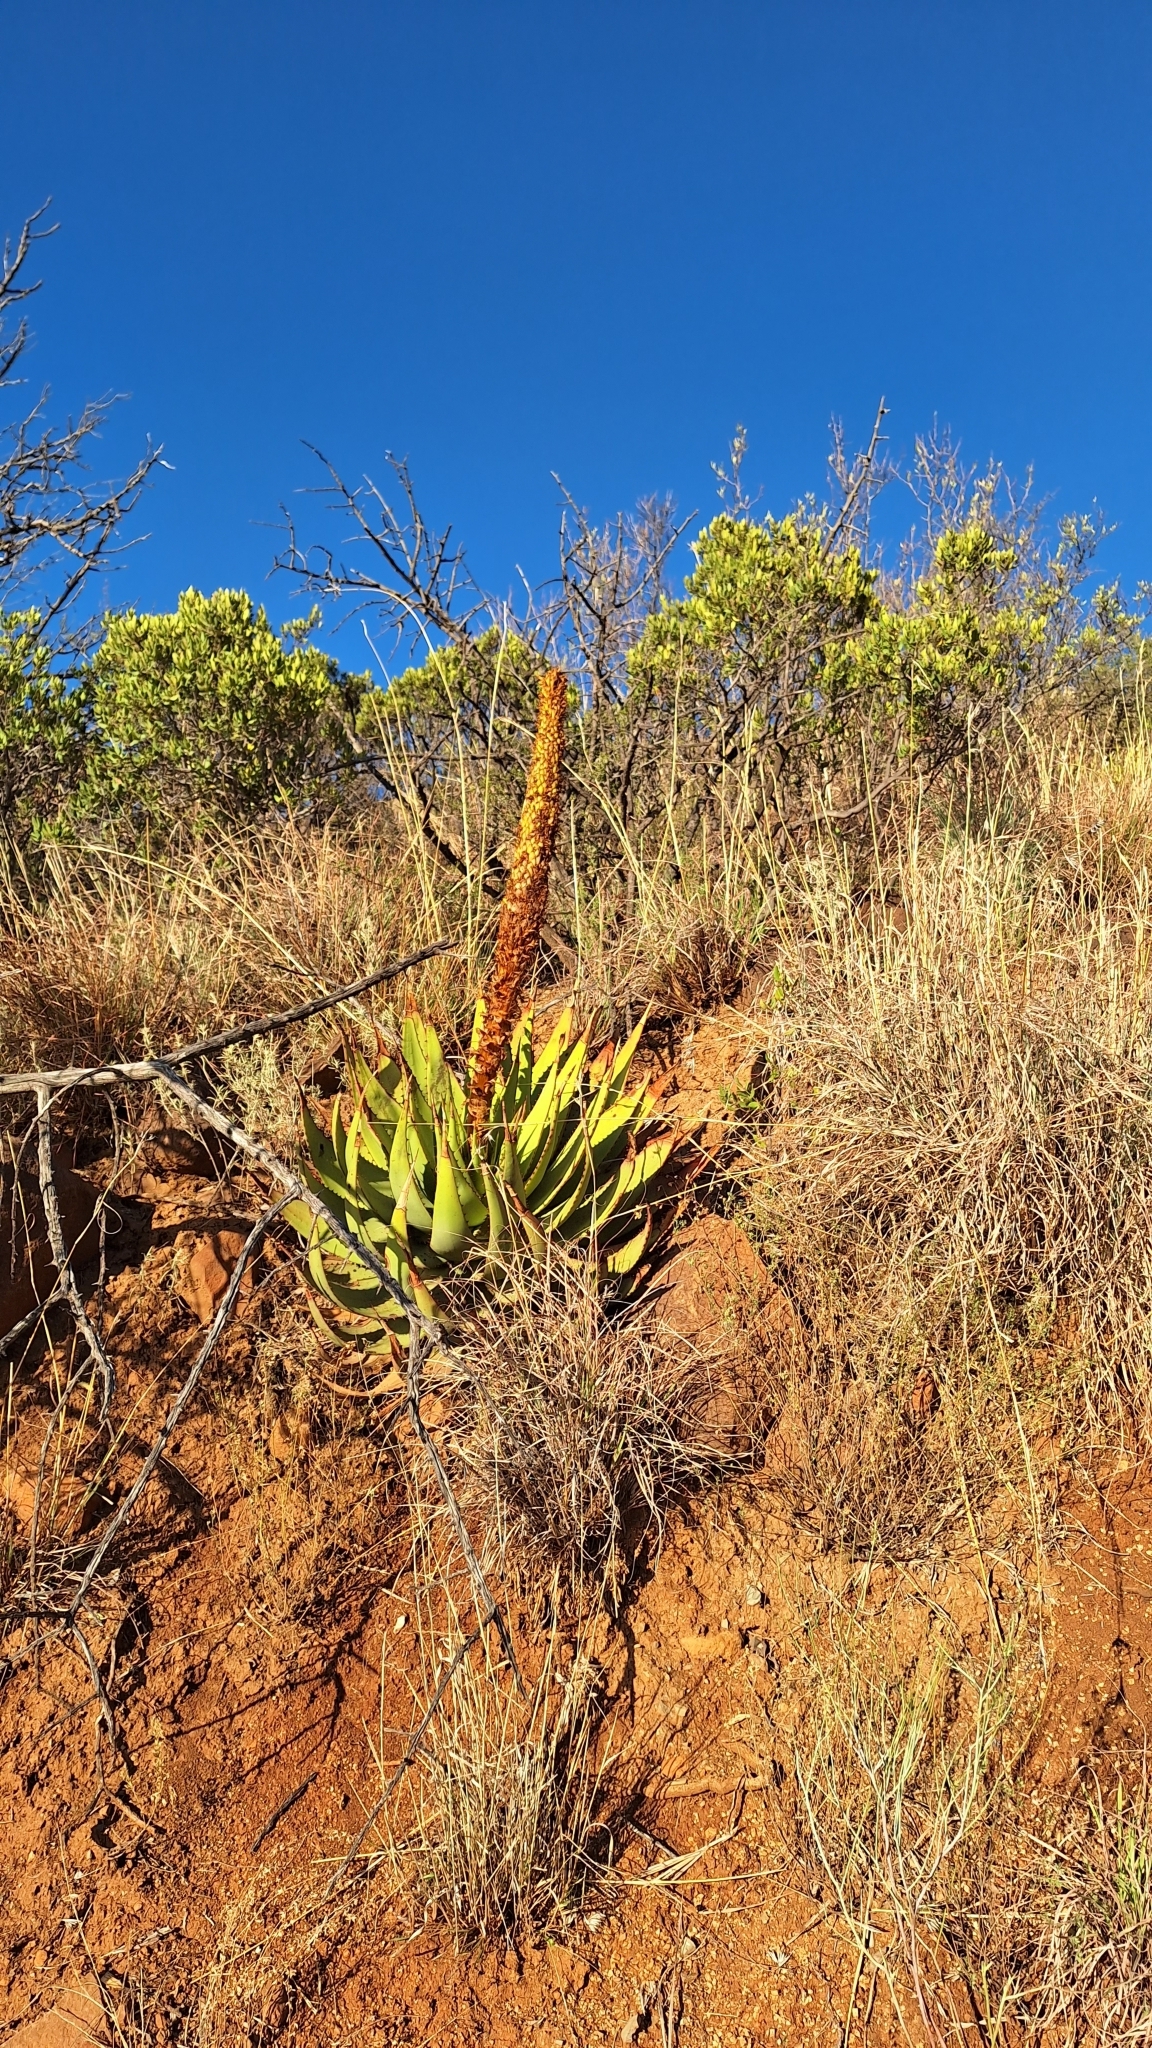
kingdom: Plantae
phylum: Tracheophyta
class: Liliopsida
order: Asparagales
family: Asphodelaceae
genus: Aloe
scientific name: Aloe broomii
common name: Berg alwyn
